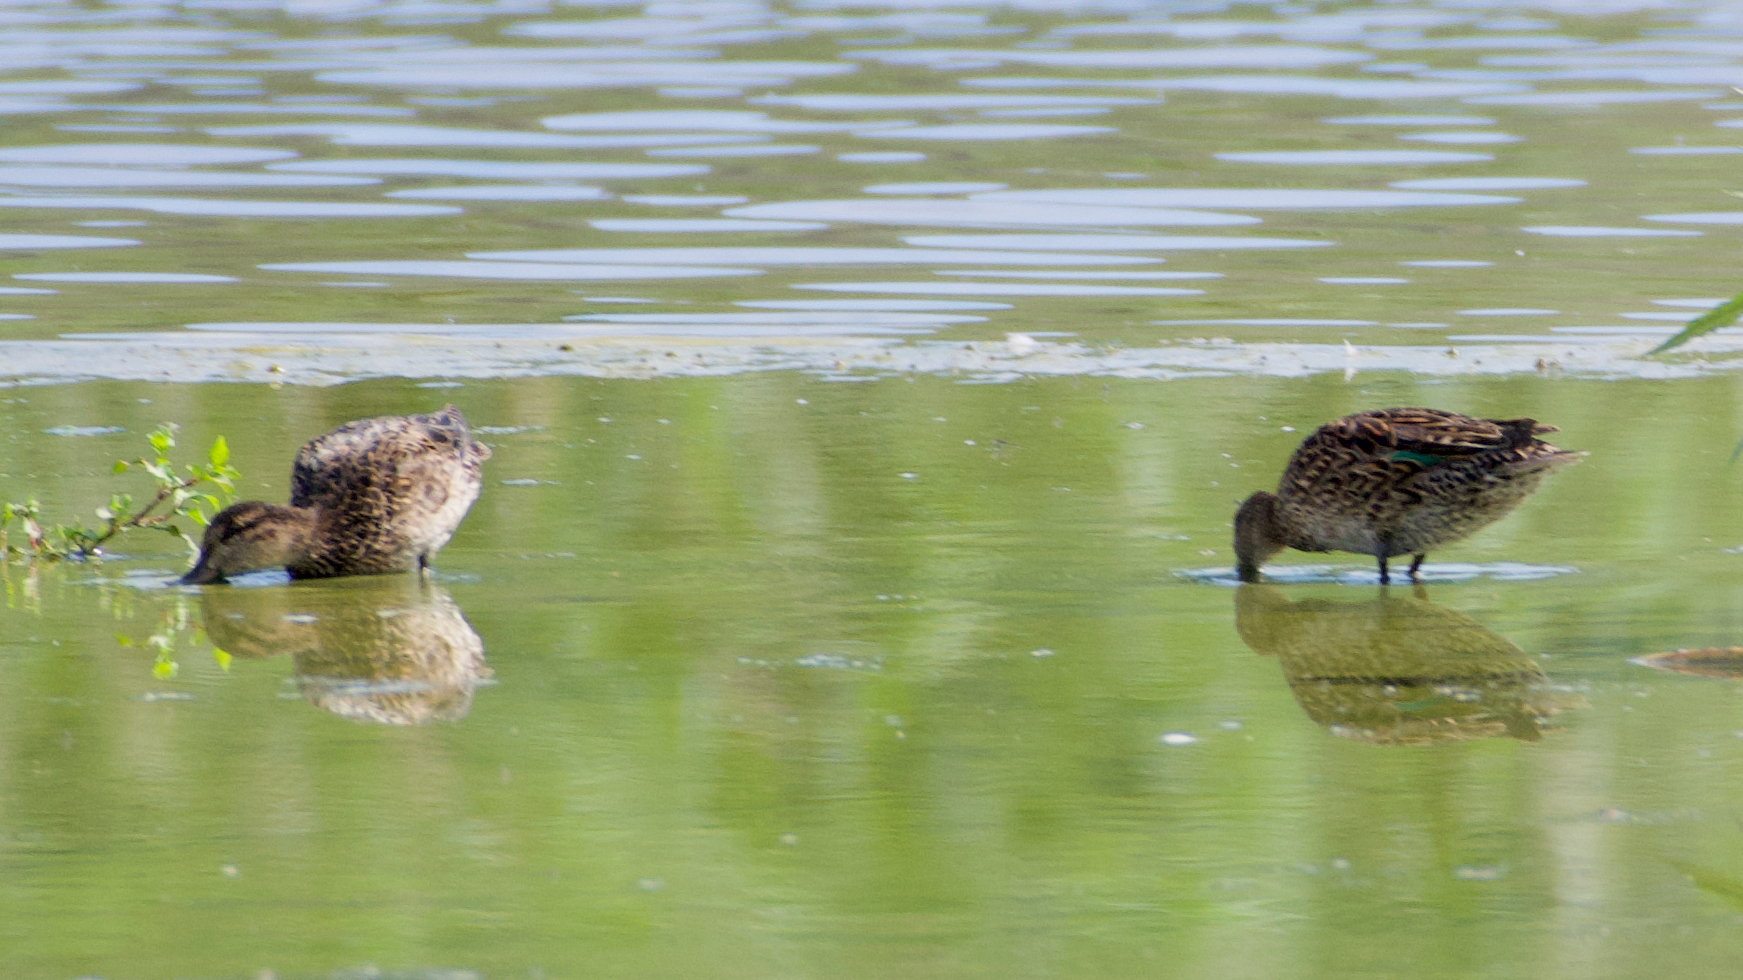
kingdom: Animalia
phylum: Chordata
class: Aves
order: Anseriformes
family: Anatidae
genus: Anas
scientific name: Anas crecca
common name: Eurasian teal
